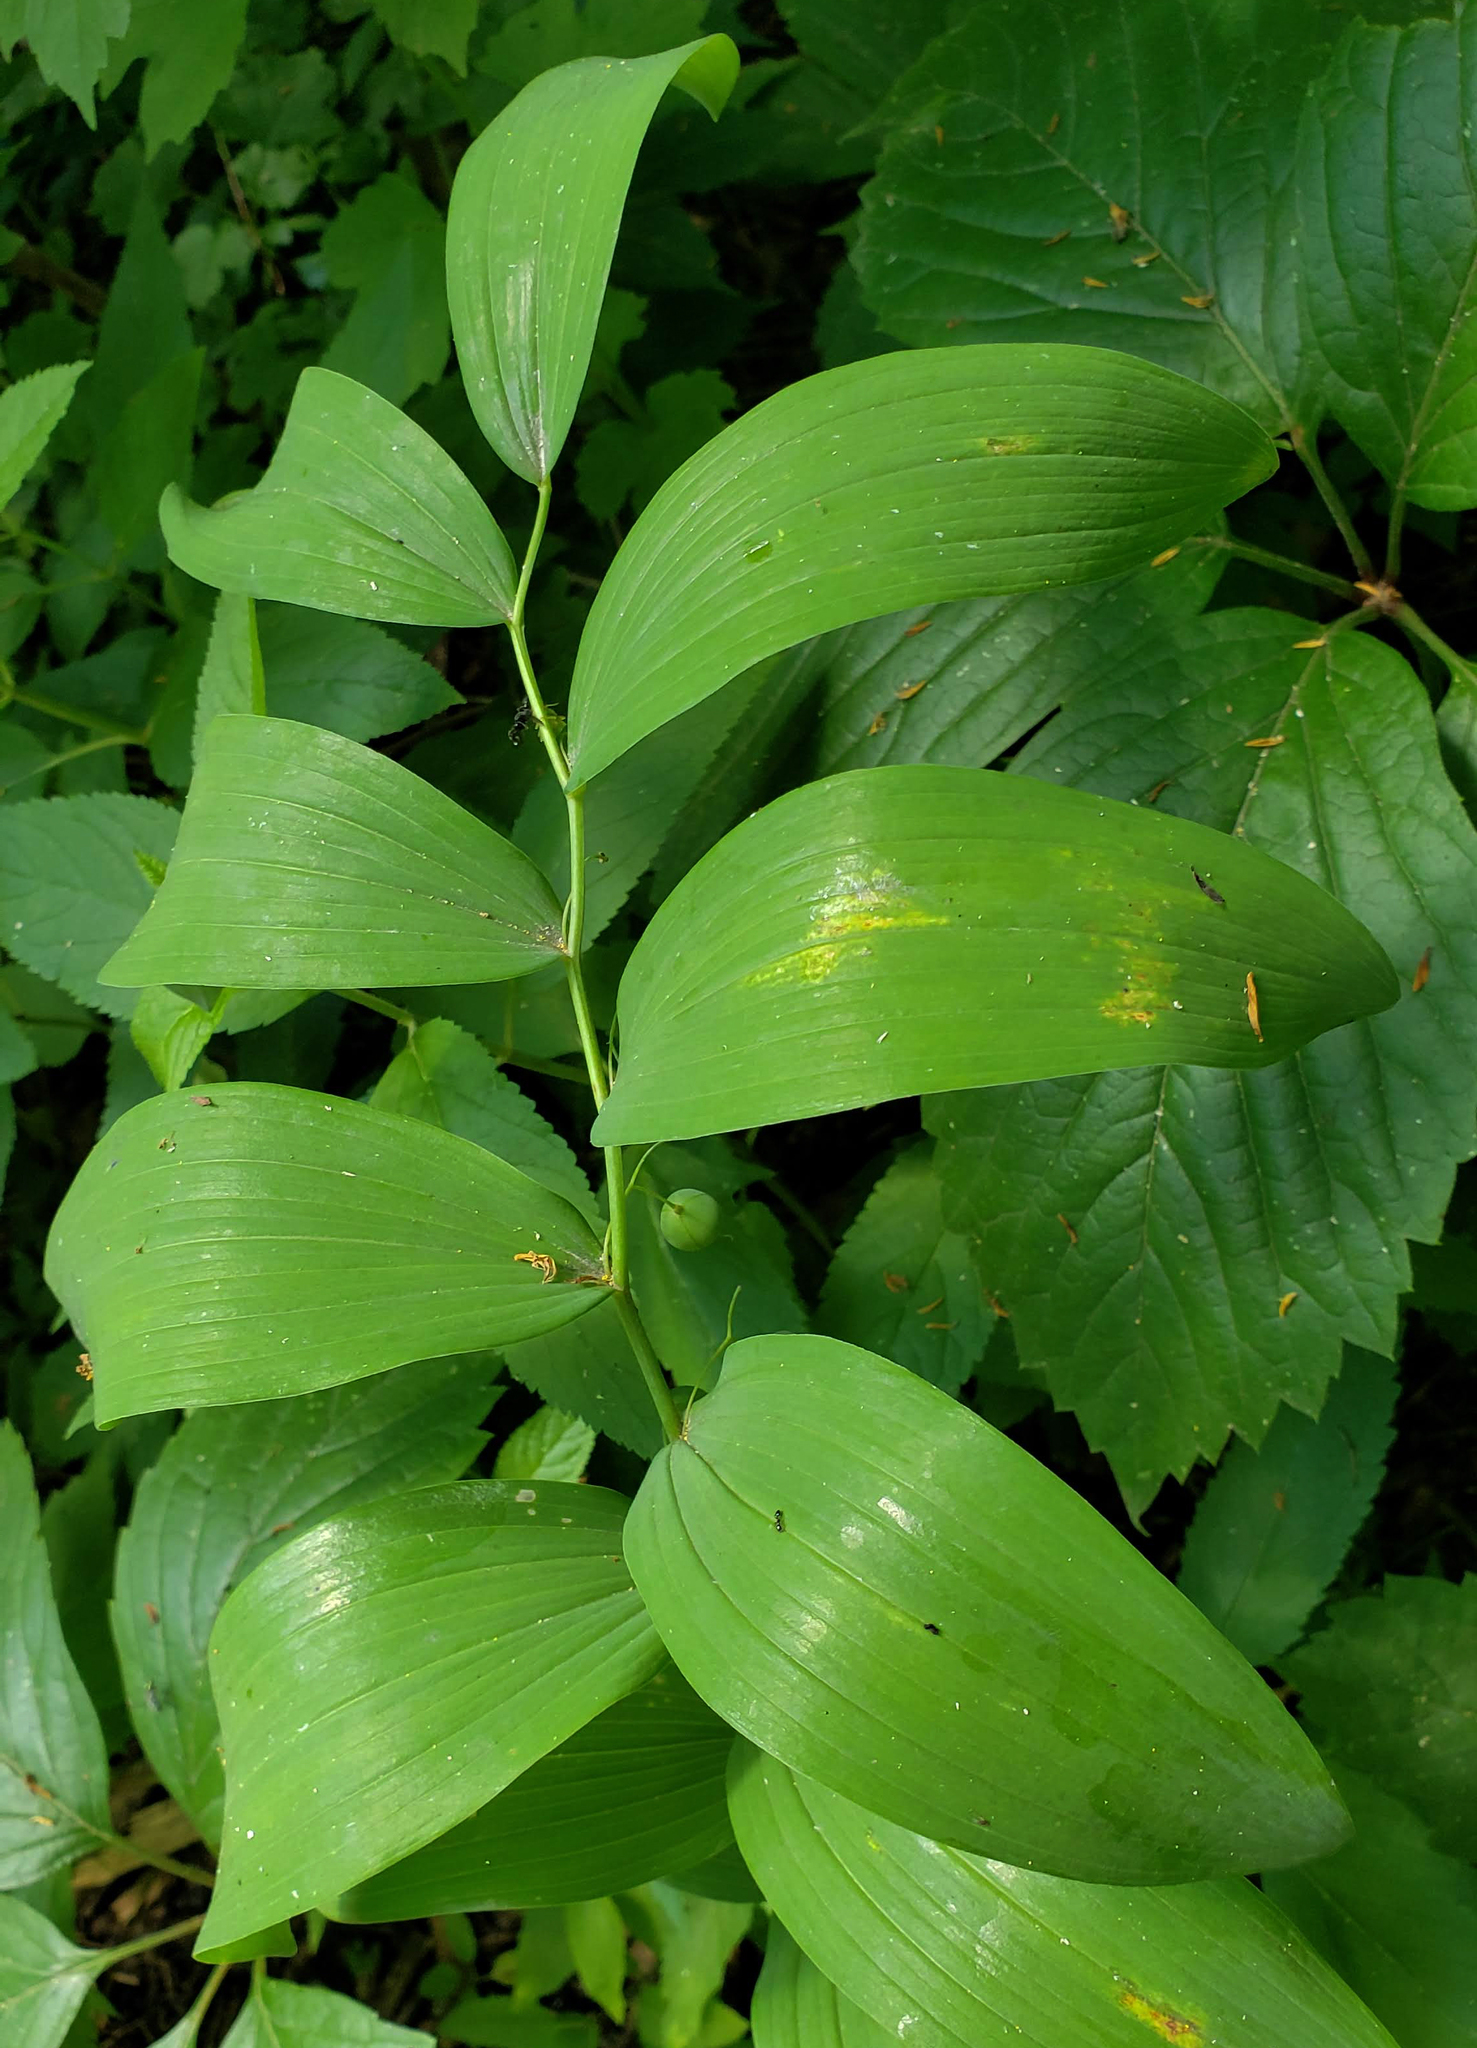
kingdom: Plantae
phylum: Tracheophyta
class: Liliopsida
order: Asparagales
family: Asparagaceae
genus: Polygonatum
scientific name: Polygonatum biflorum
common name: American solomon's-seal
